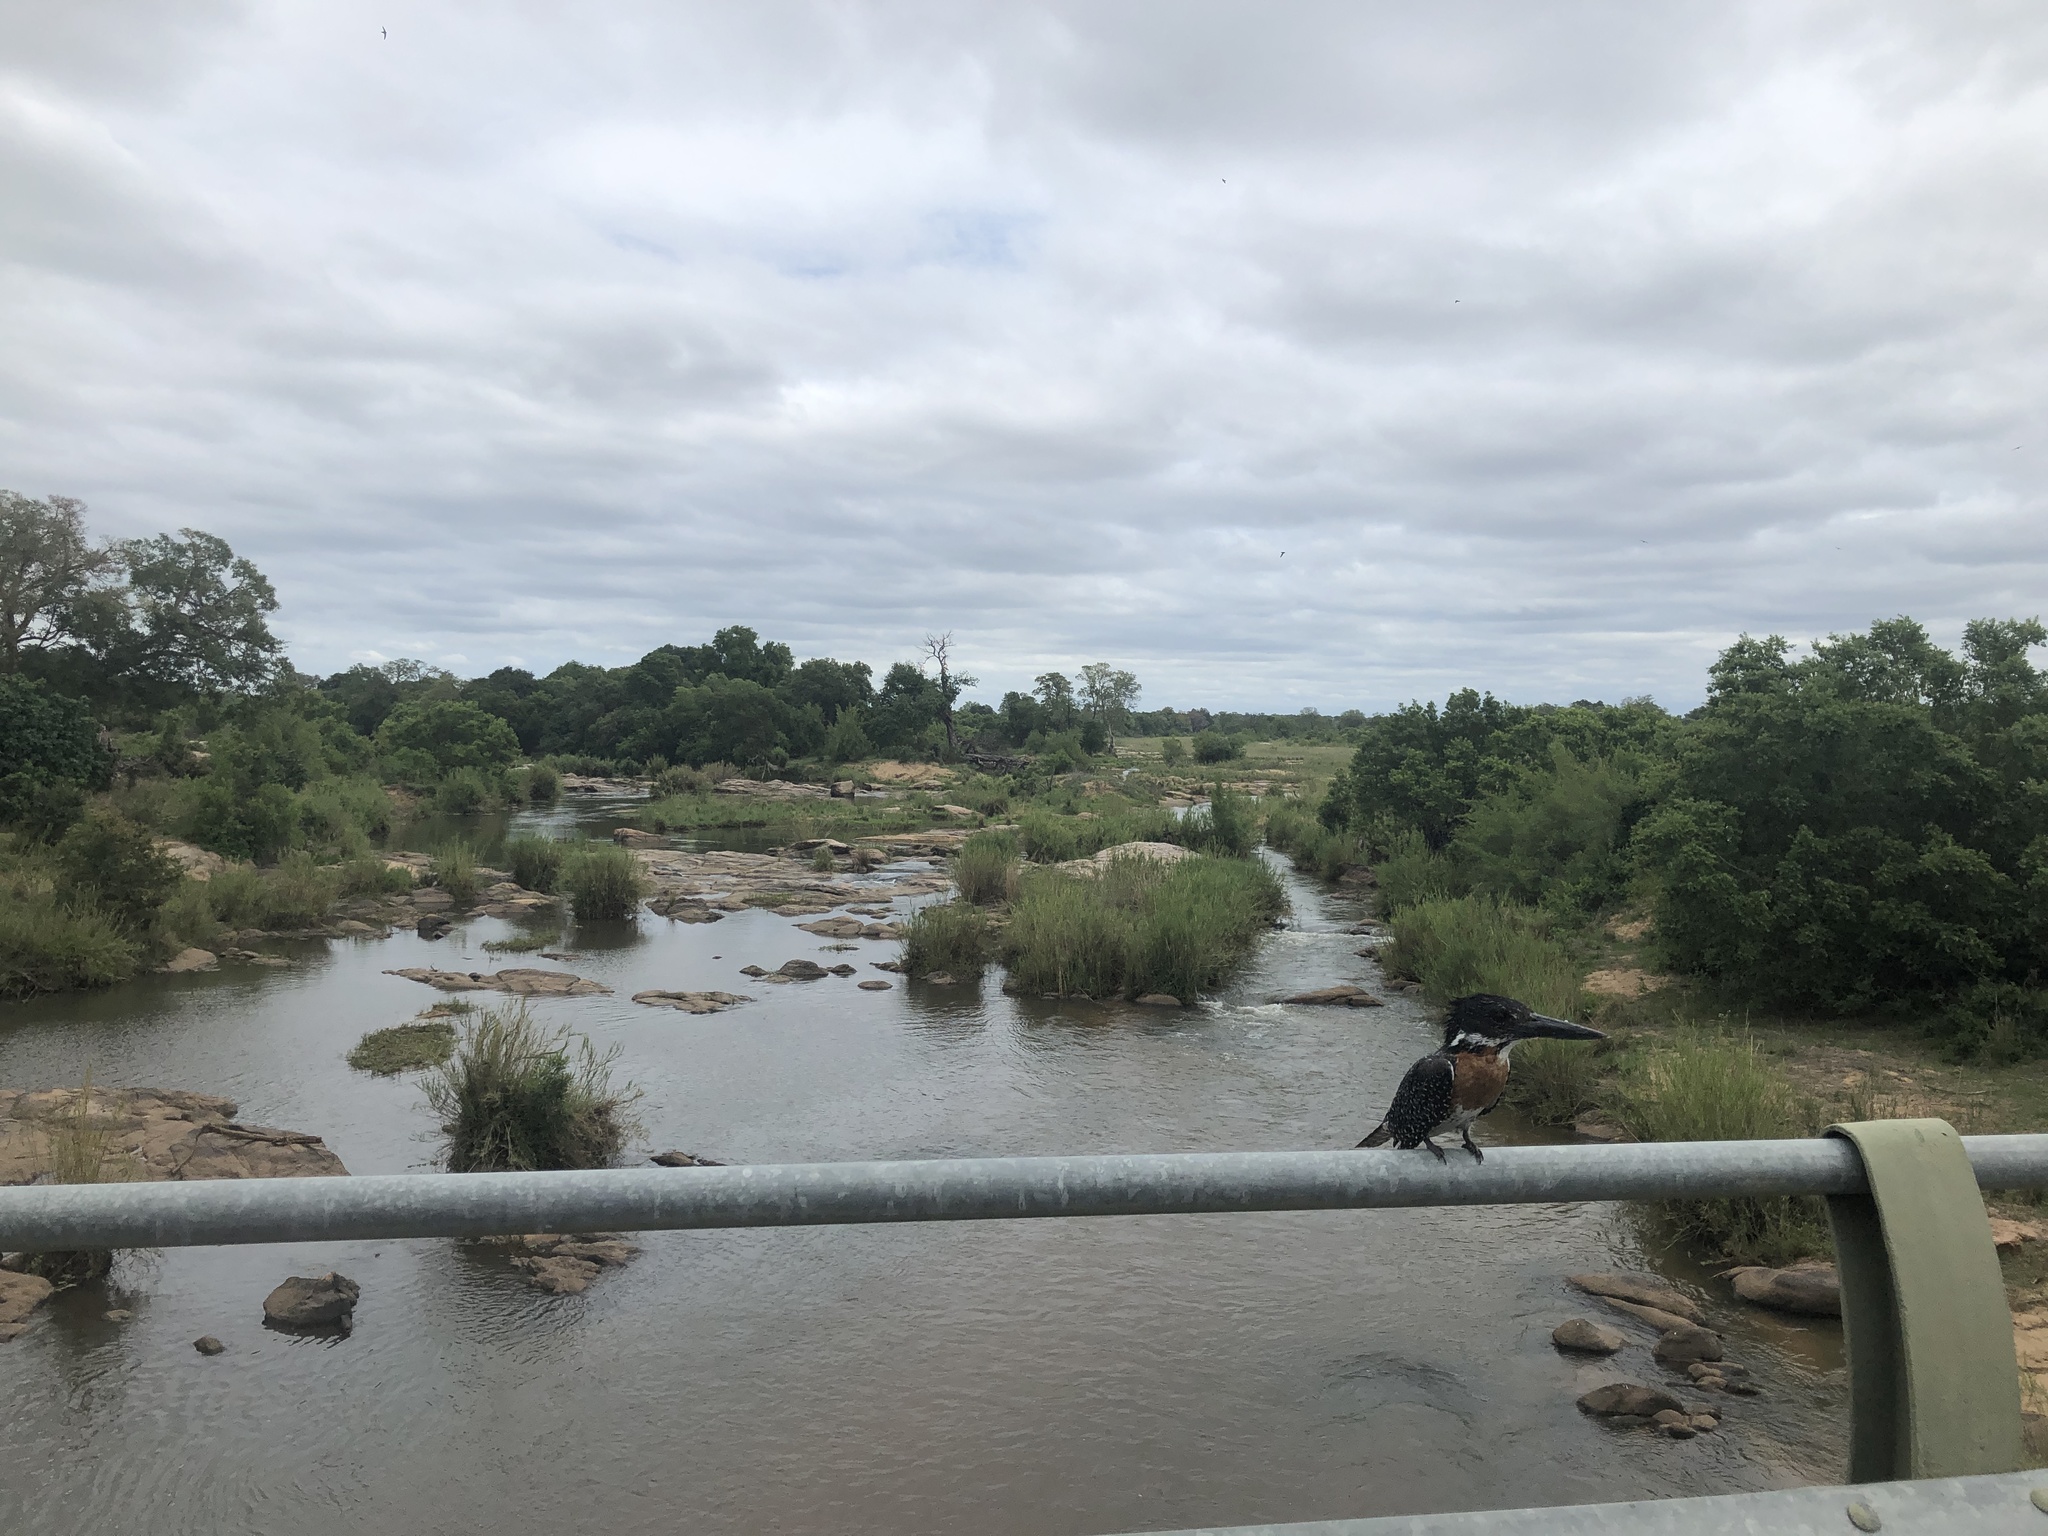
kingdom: Animalia
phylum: Chordata
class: Aves
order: Coraciiformes
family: Alcedinidae
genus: Megaceryle
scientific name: Megaceryle maxima
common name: Giant kingfisher
